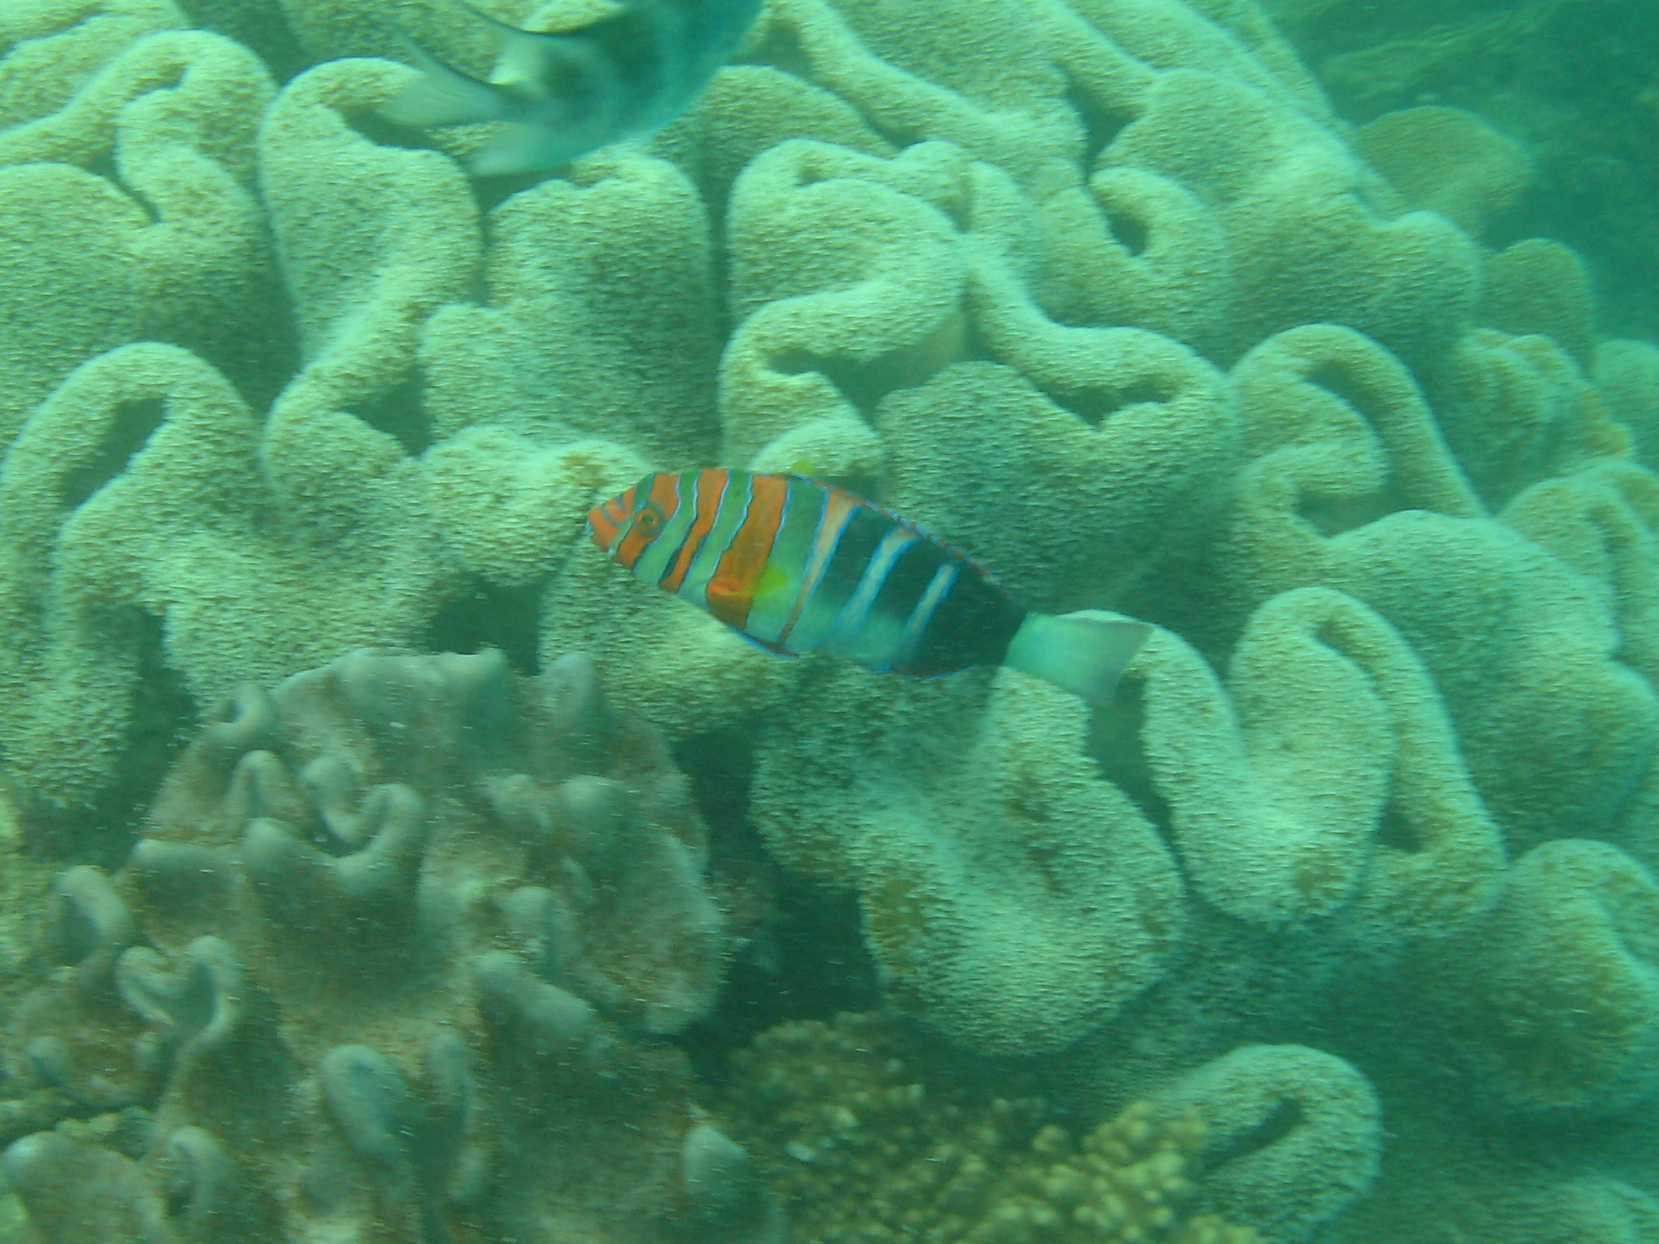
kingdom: Animalia
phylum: Chordata
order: Perciformes
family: Labridae
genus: Choerodon
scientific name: Choerodon fasciatus
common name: Harlequin tuskfish
